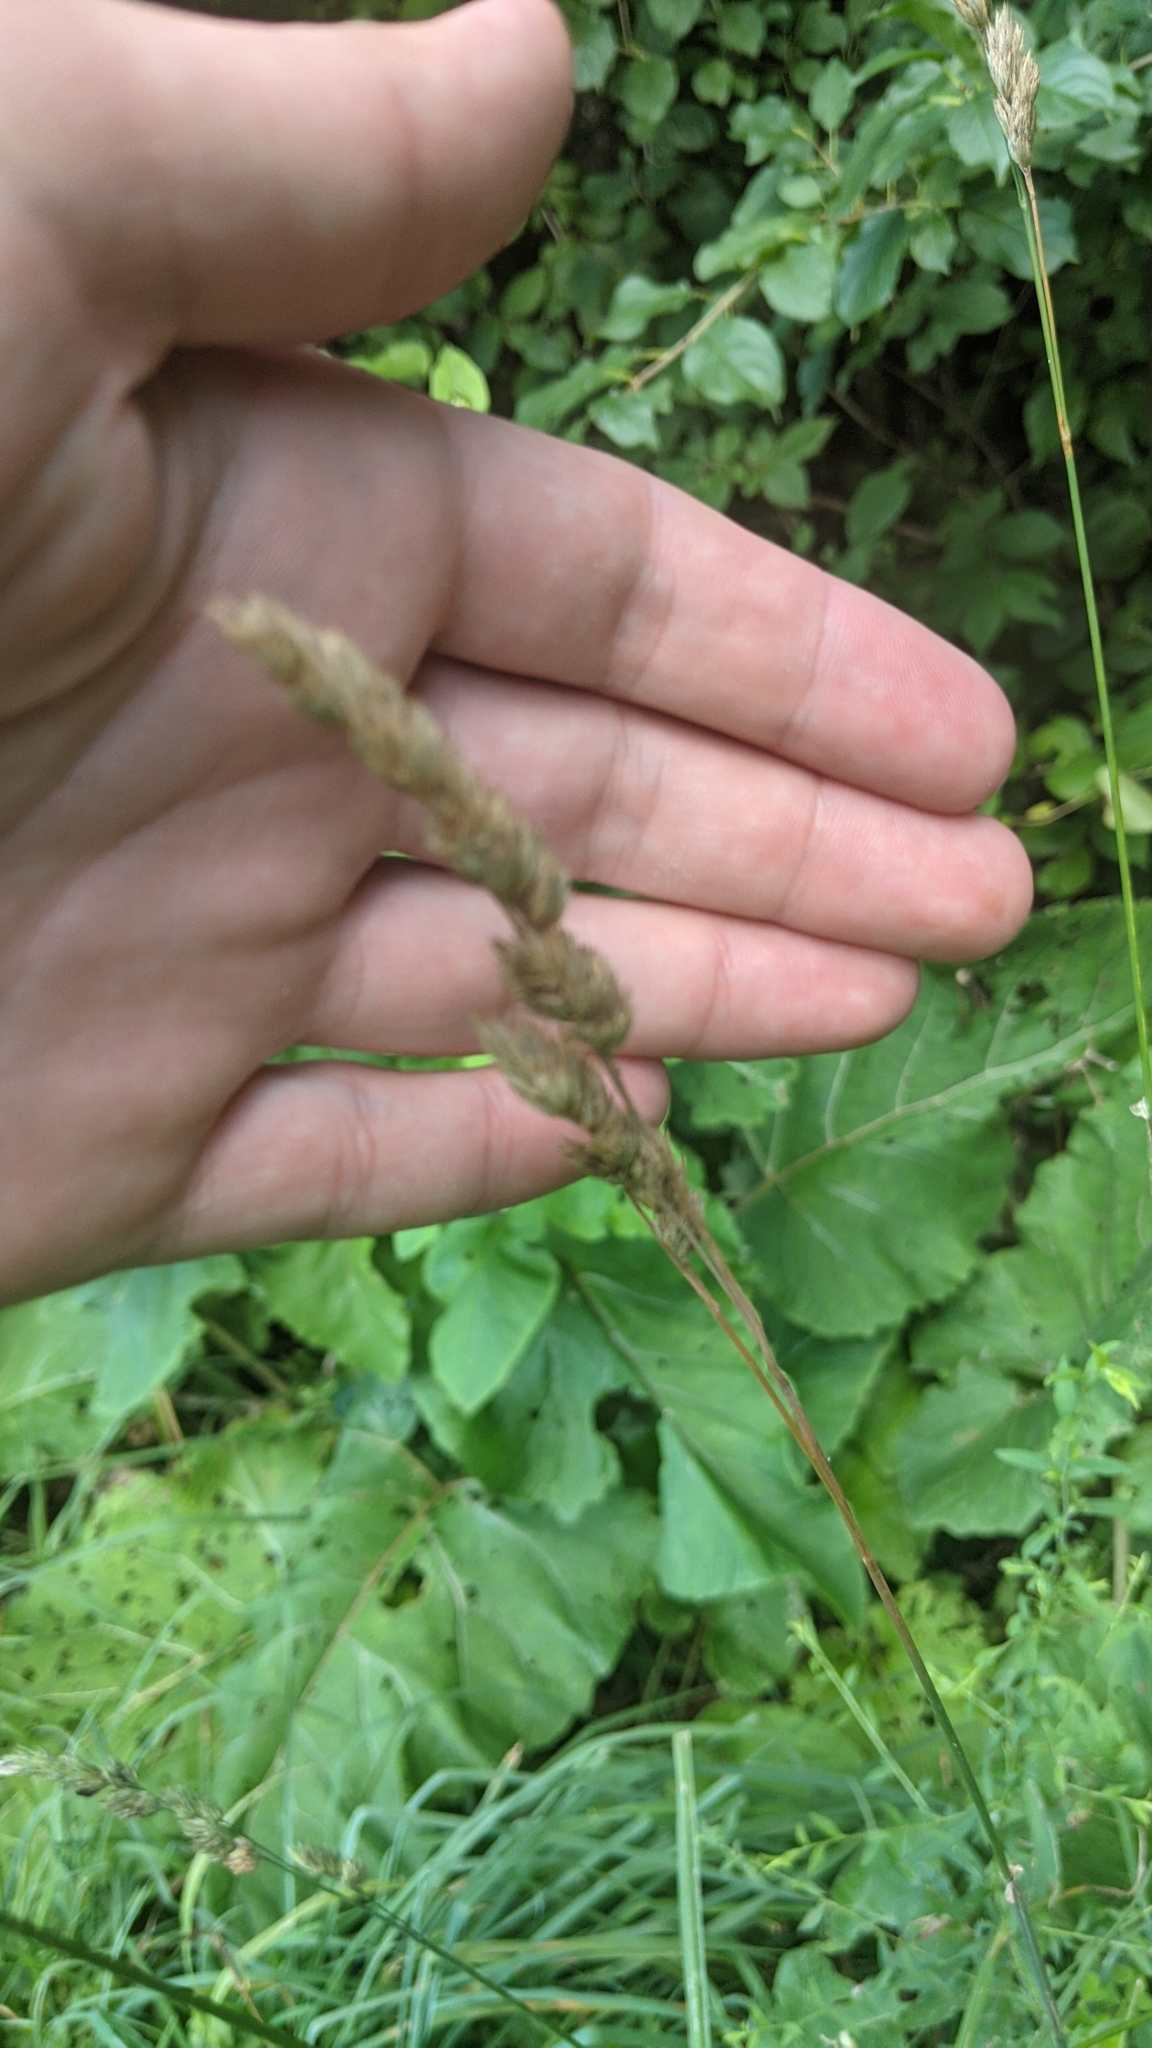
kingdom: Plantae
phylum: Tracheophyta
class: Liliopsida
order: Poales
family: Poaceae
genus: Dactylis
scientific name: Dactylis glomerata
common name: Orchardgrass
